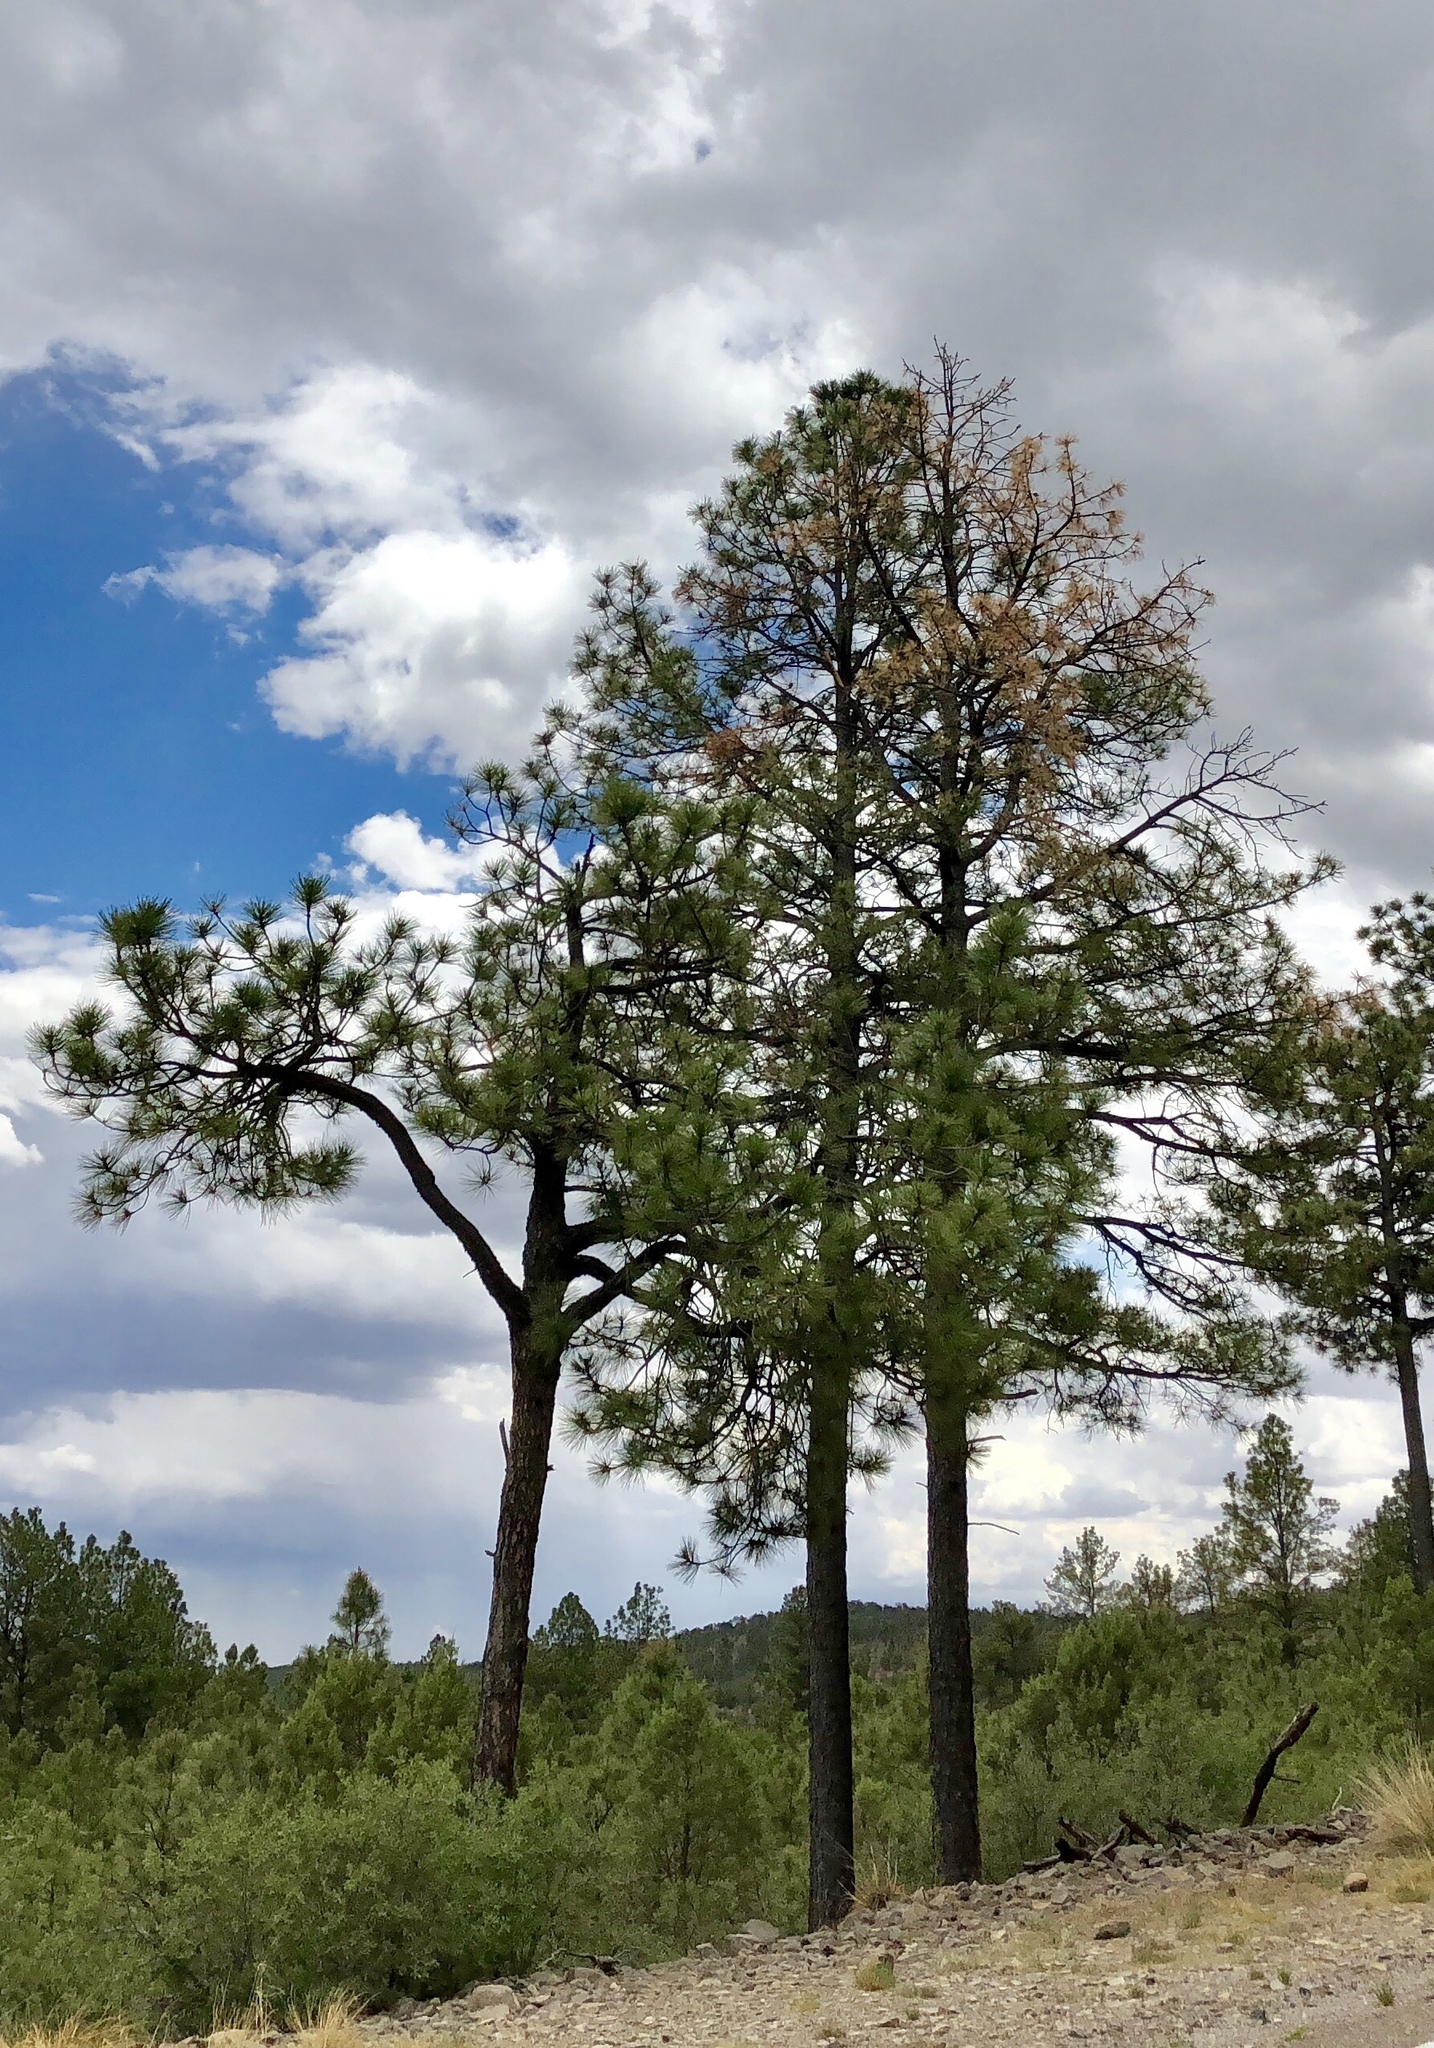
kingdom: Plantae
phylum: Tracheophyta
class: Pinopsida
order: Pinales
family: Pinaceae
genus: Pinus
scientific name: Pinus ponderosa
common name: Western yellow-pine
